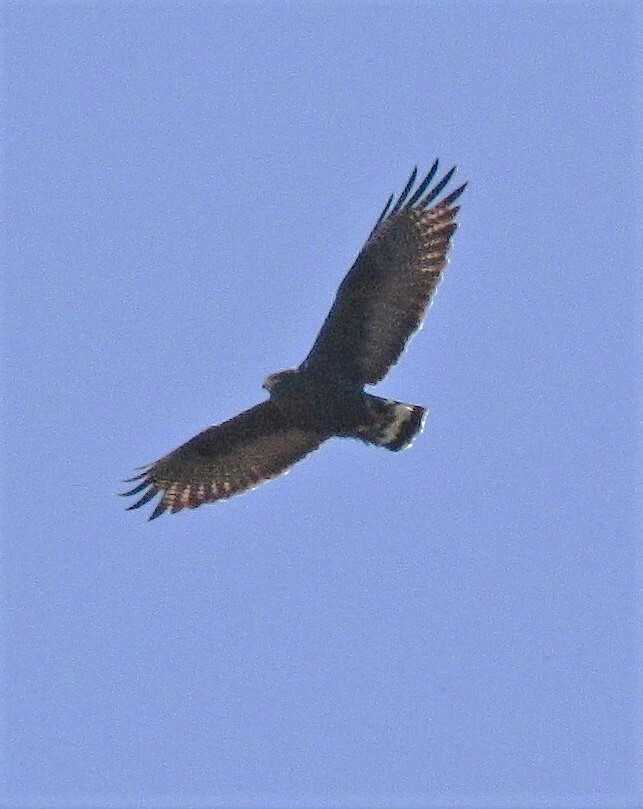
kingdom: Animalia
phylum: Chordata
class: Aves
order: Accipitriformes
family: Accipitridae
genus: Buteo
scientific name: Buteo albonotatus
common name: Zone-tailed hawk
